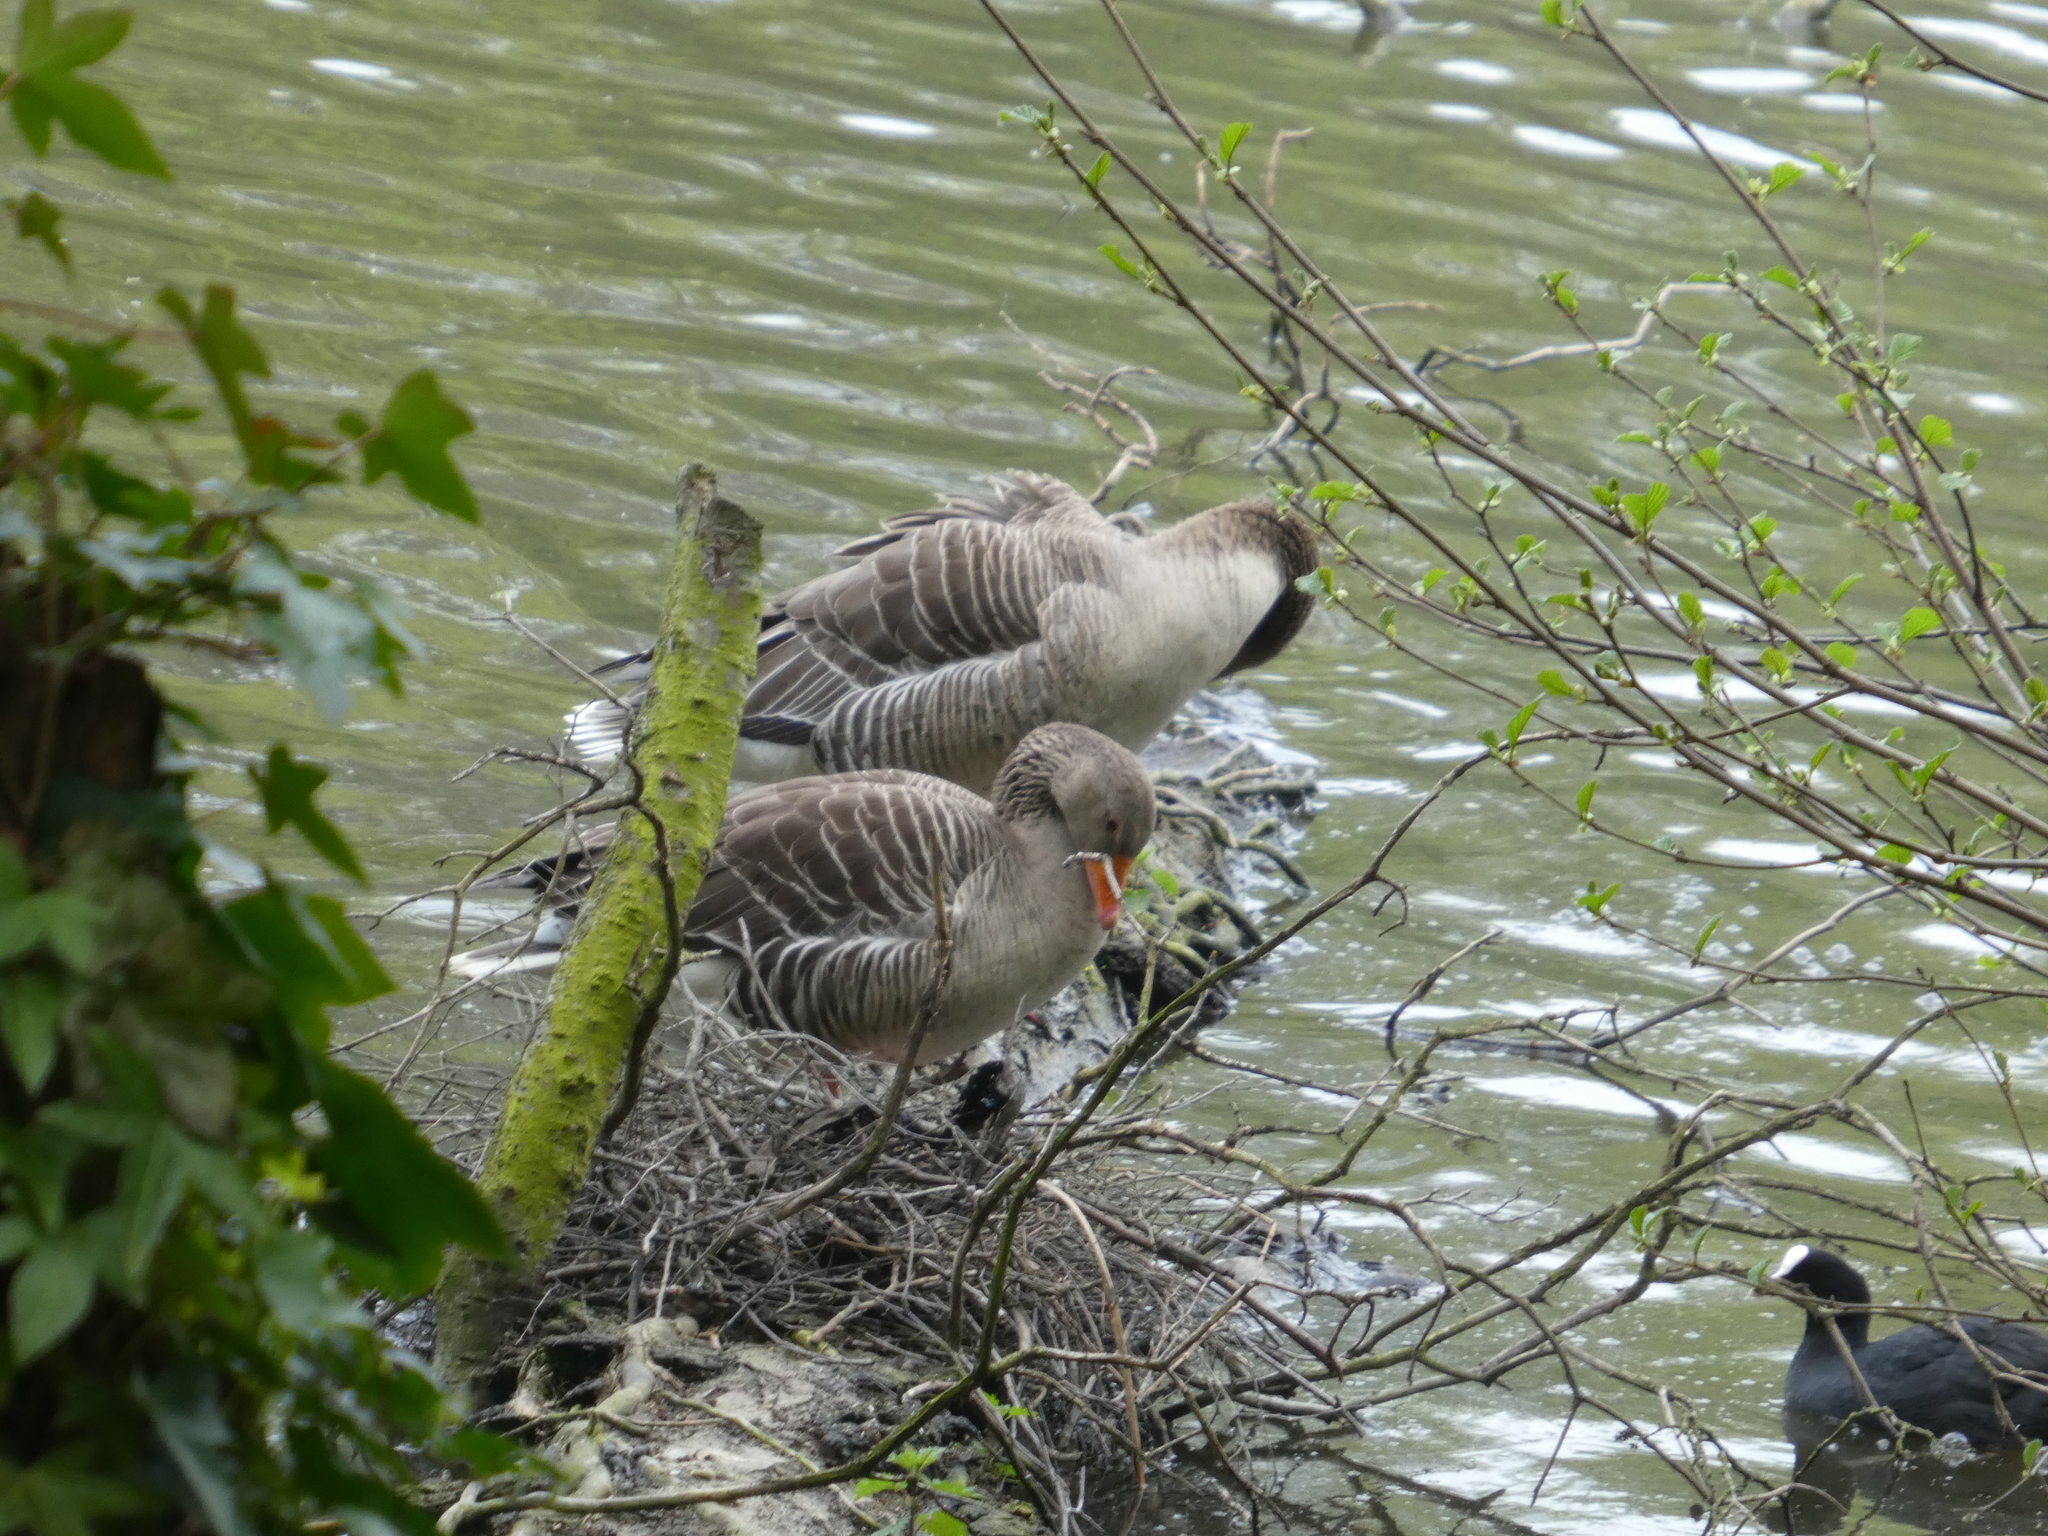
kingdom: Animalia
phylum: Chordata
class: Aves
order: Anseriformes
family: Anatidae
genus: Anser
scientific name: Anser anser
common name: Greylag goose
